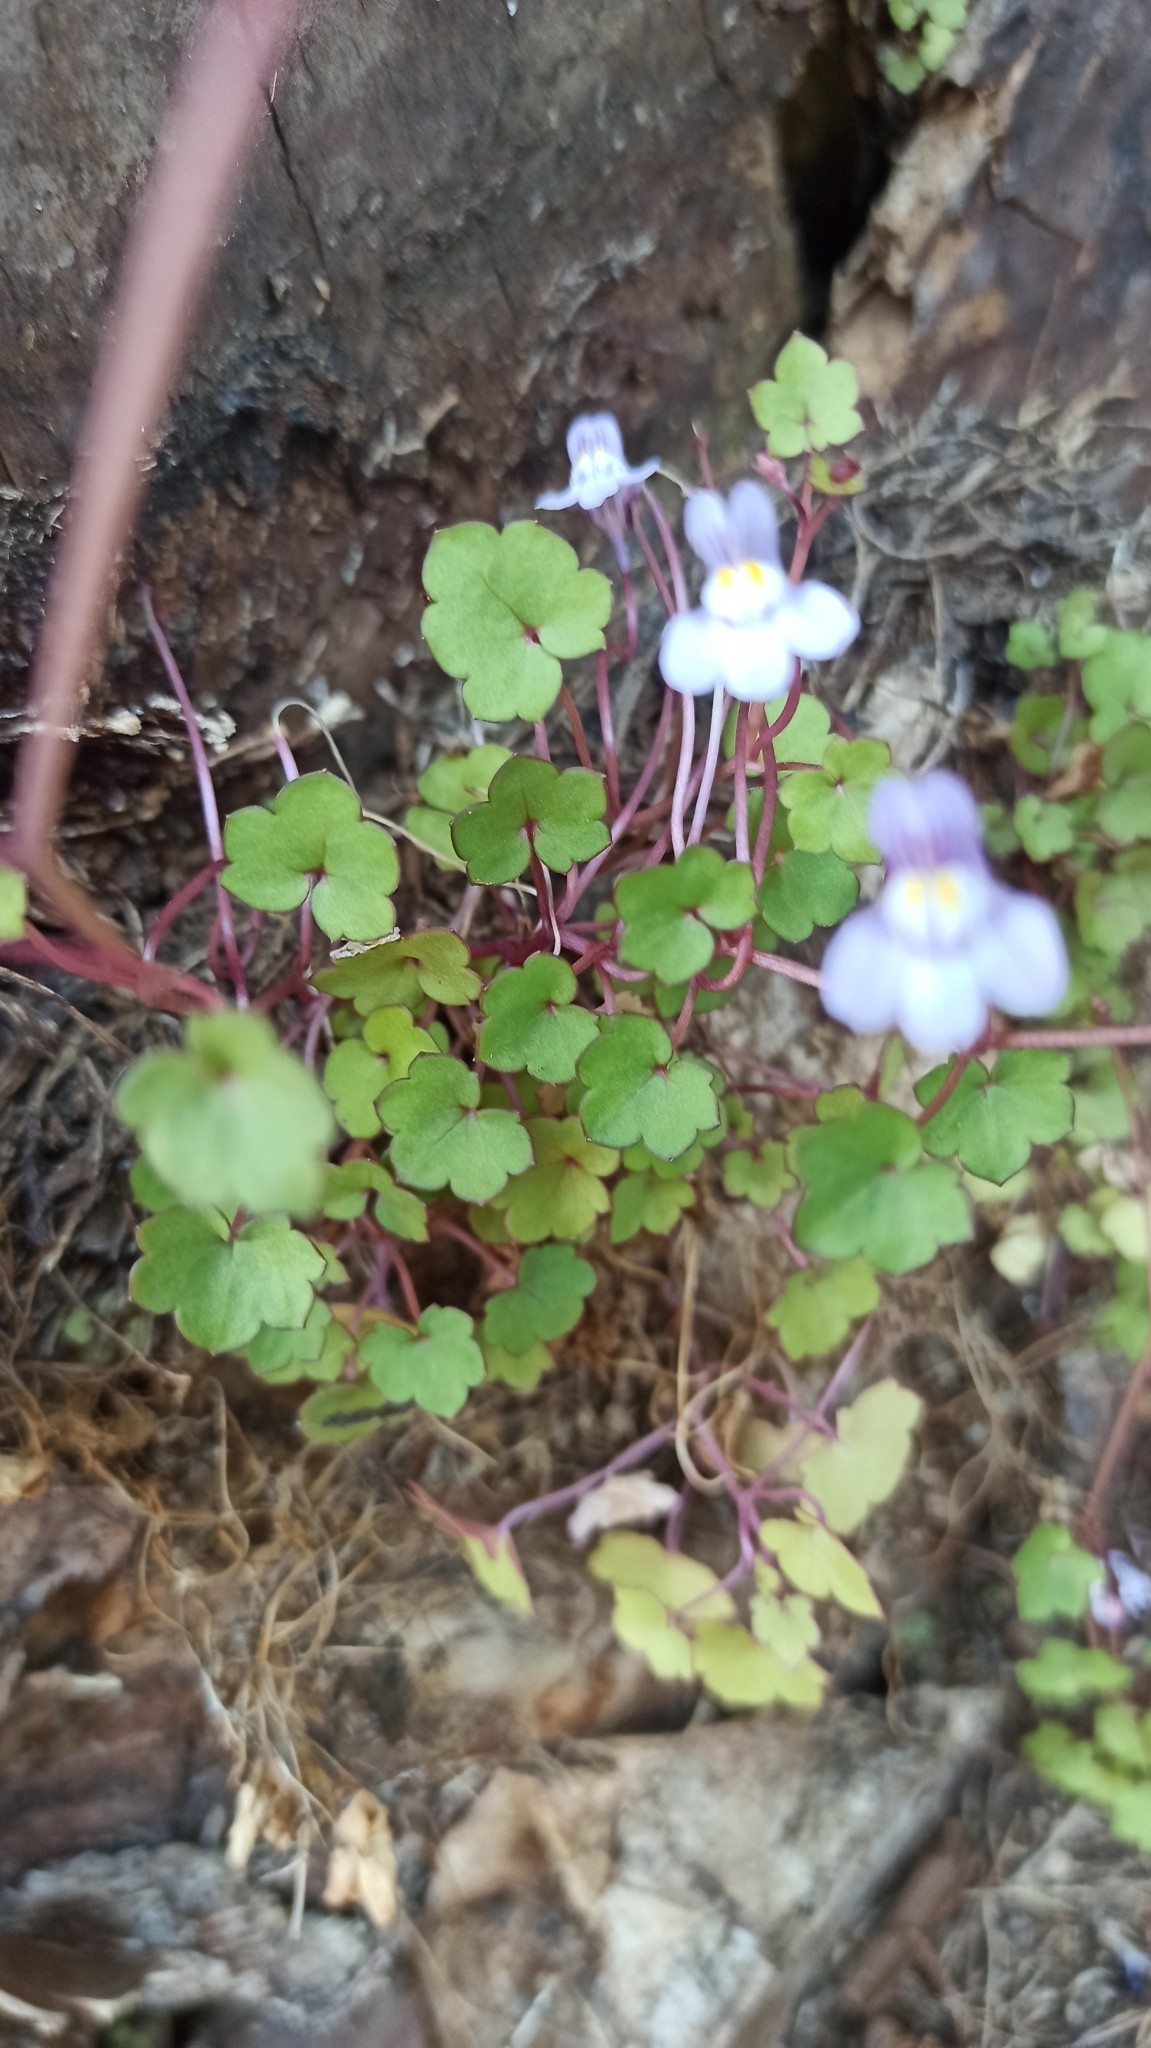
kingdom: Plantae
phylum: Tracheophyta
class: Magnoliopsida
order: Lamiales
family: Plantaginaceae
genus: Cymbalaria
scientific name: Cymbalaria muralis
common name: Ivy-leaved toadflax
